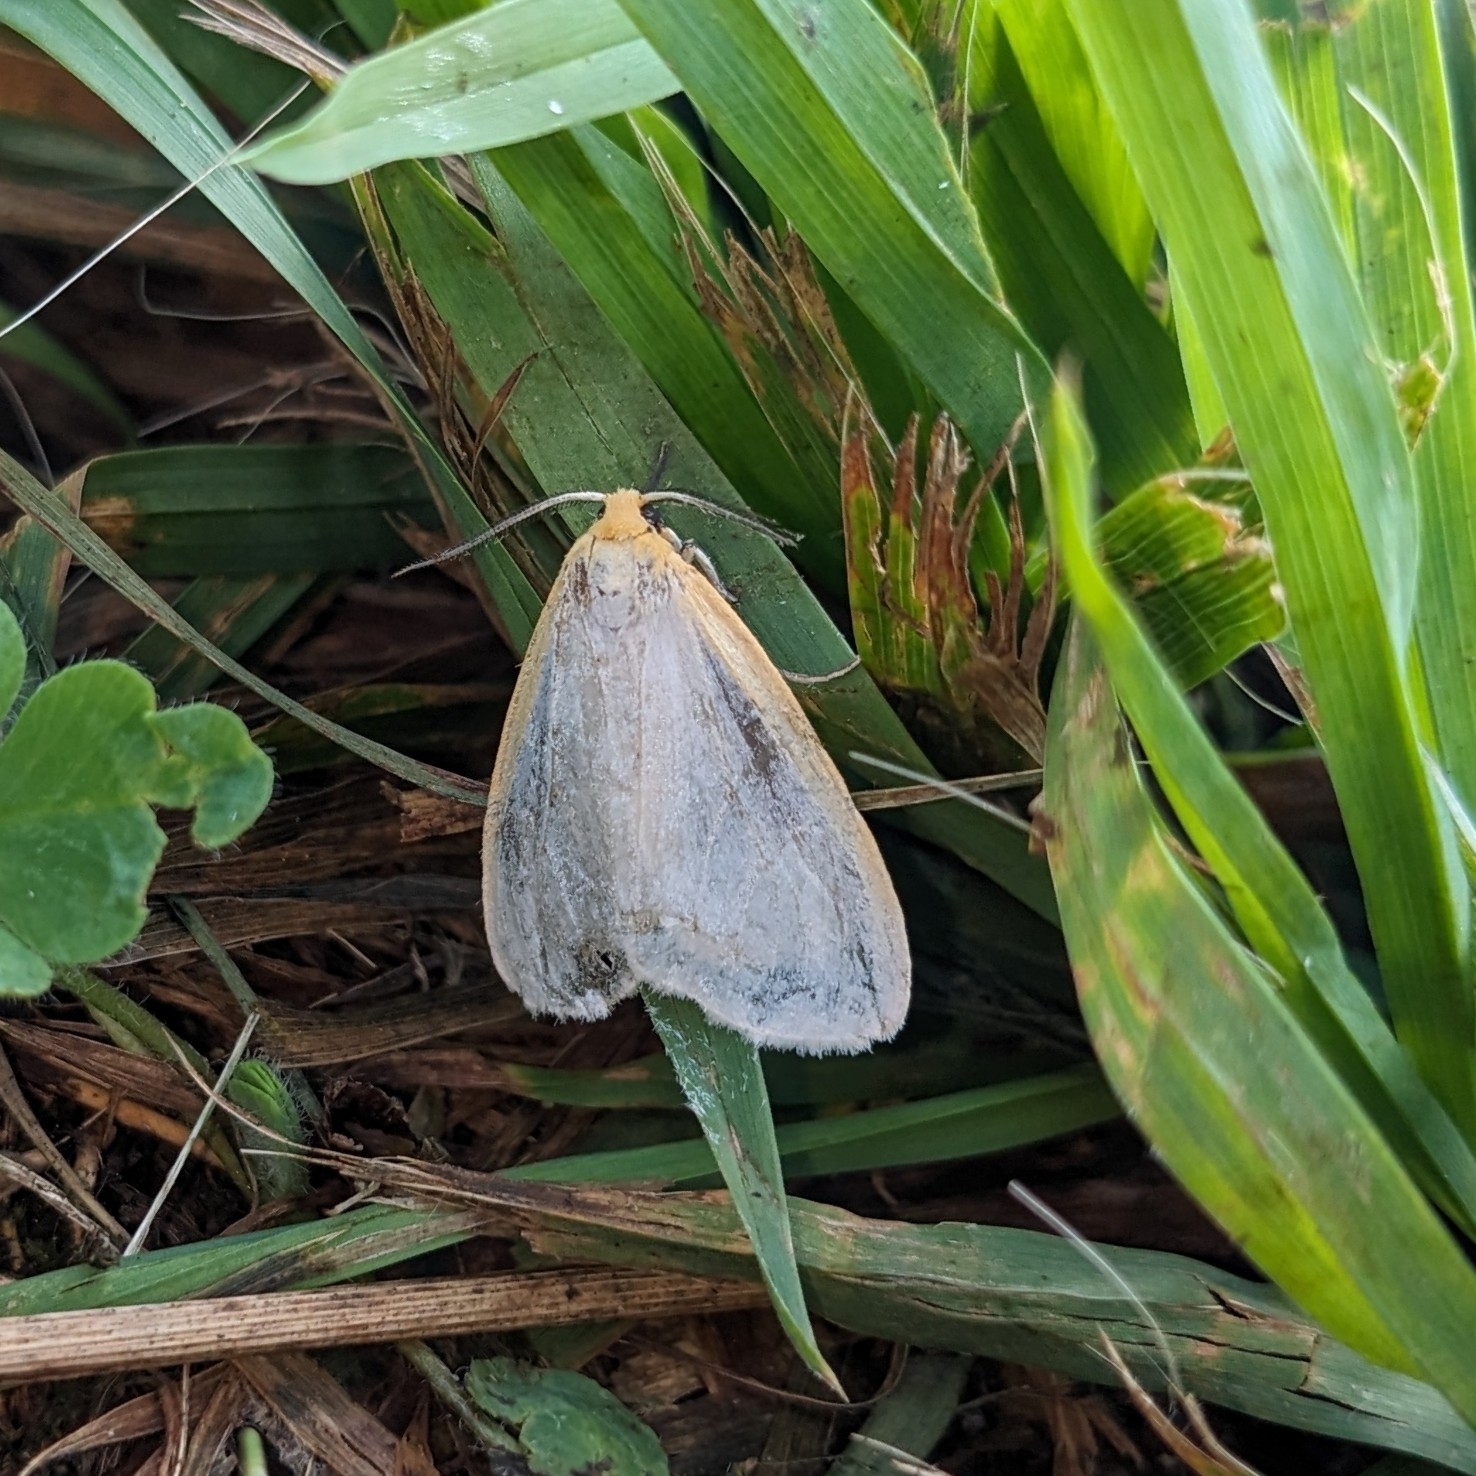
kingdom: Animalia
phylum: Arthropoda
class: Insecta
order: Lepidoptera
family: Erebidae
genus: Cycnia
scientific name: Cycnia tenera
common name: Delicate cycnia moth
